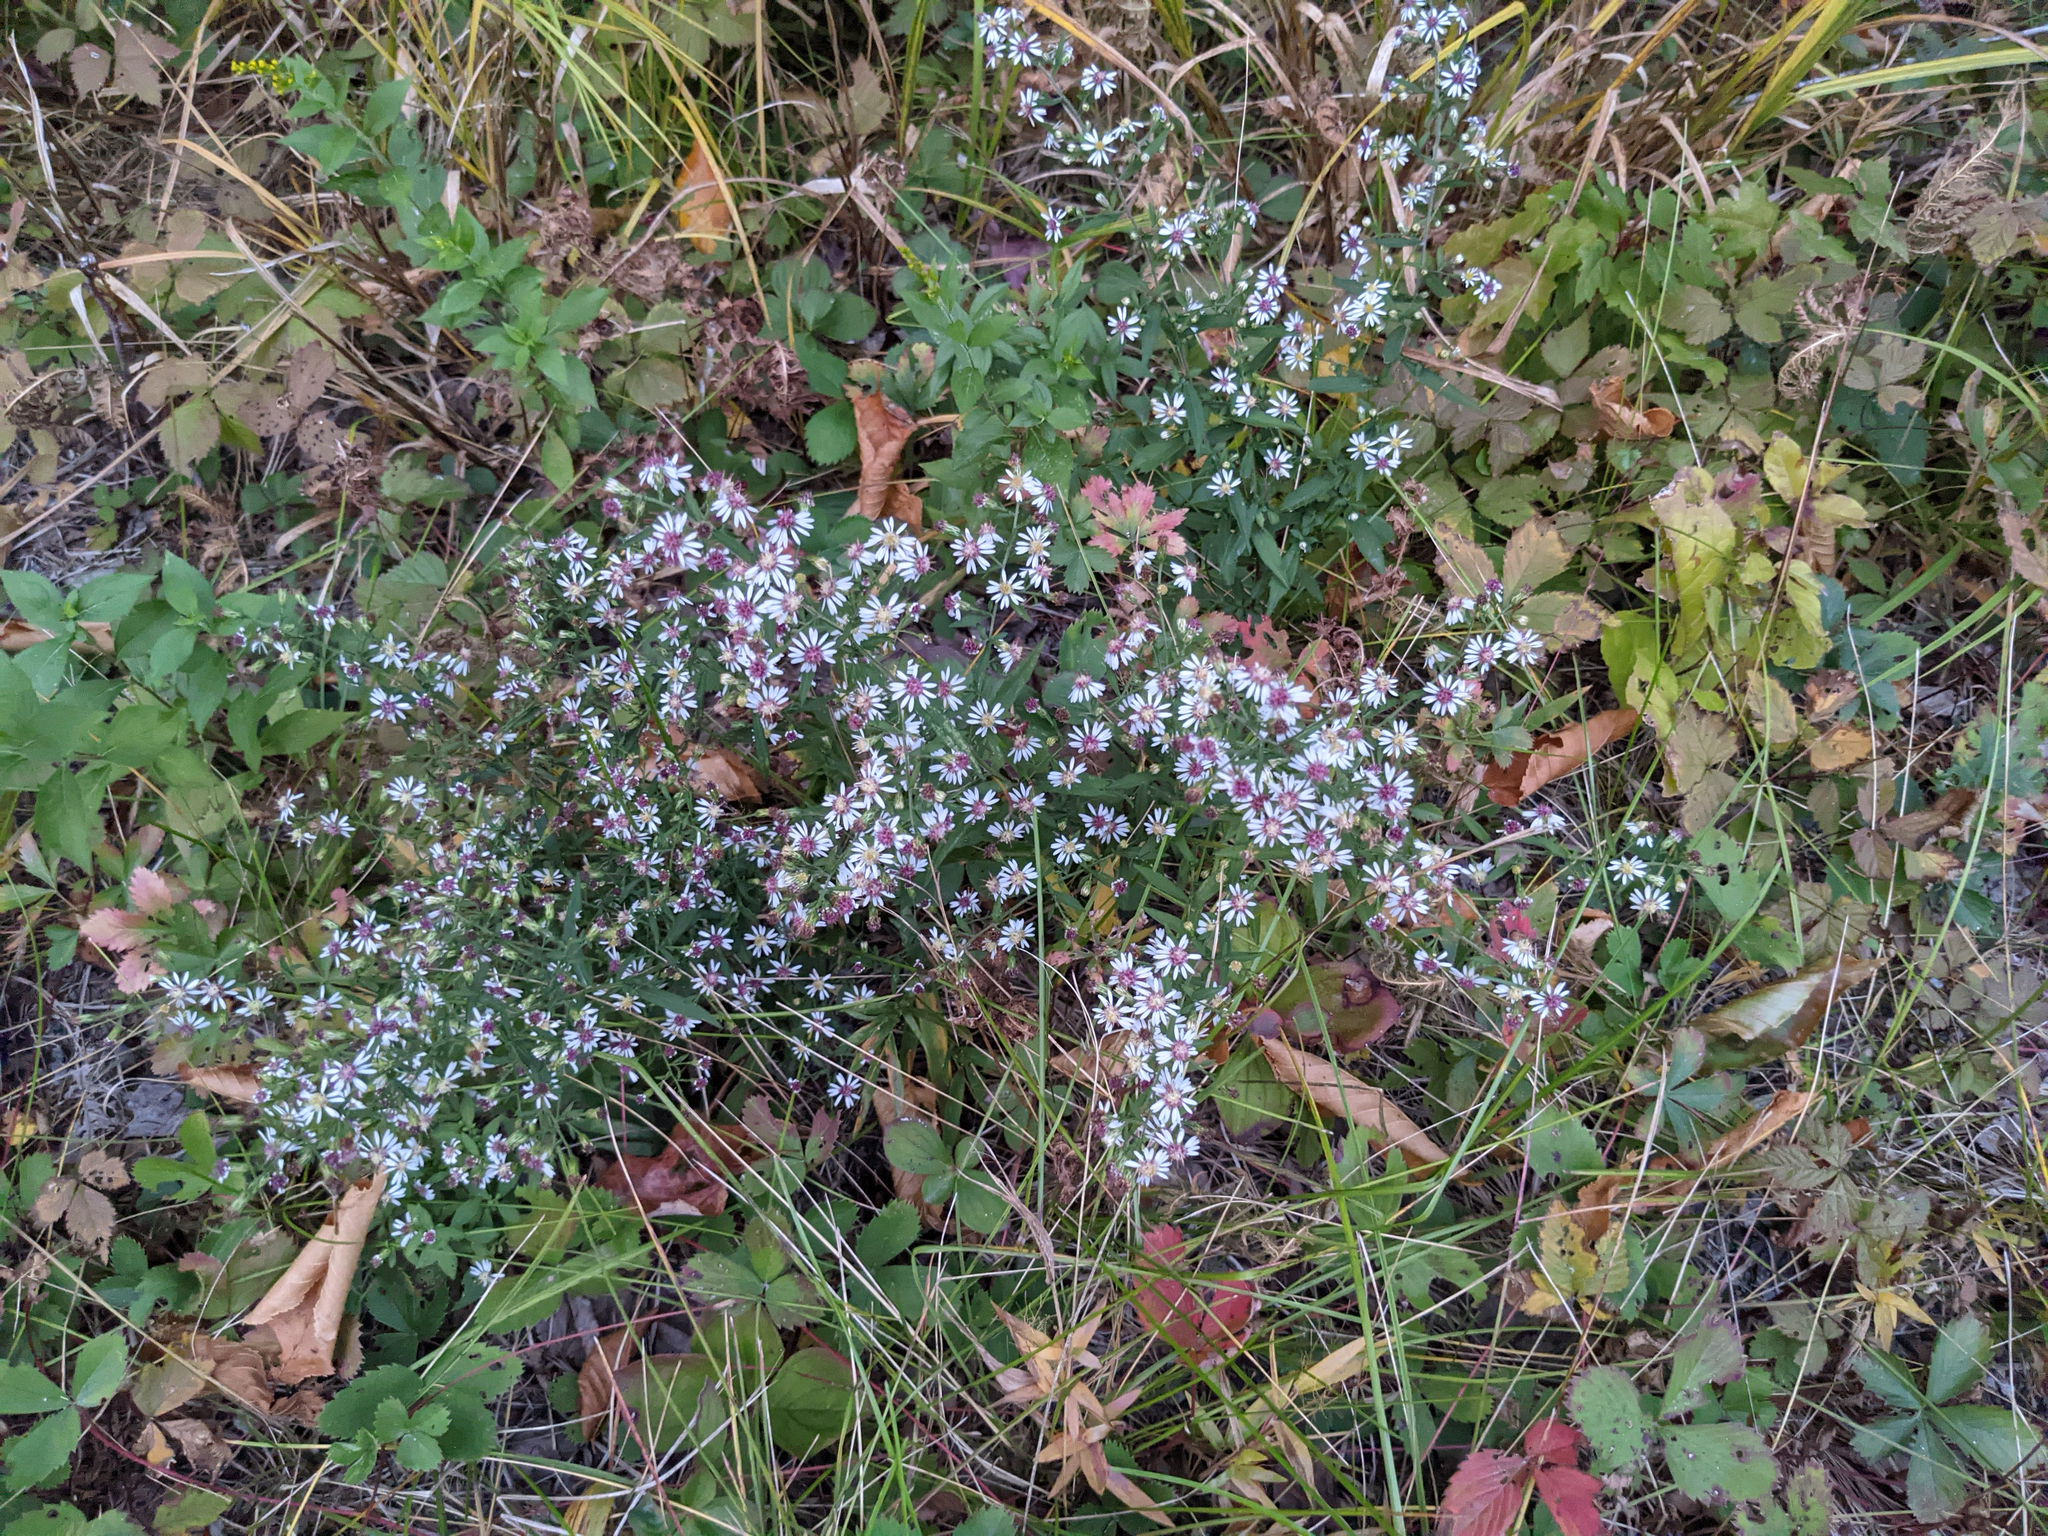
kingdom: Plantae
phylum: Tracheophyta
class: Magnoliopsida
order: Asterales
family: Asteraceae
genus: Symphyotrichum
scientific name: Symphyotrichum lateriflorum
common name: Calico aster
